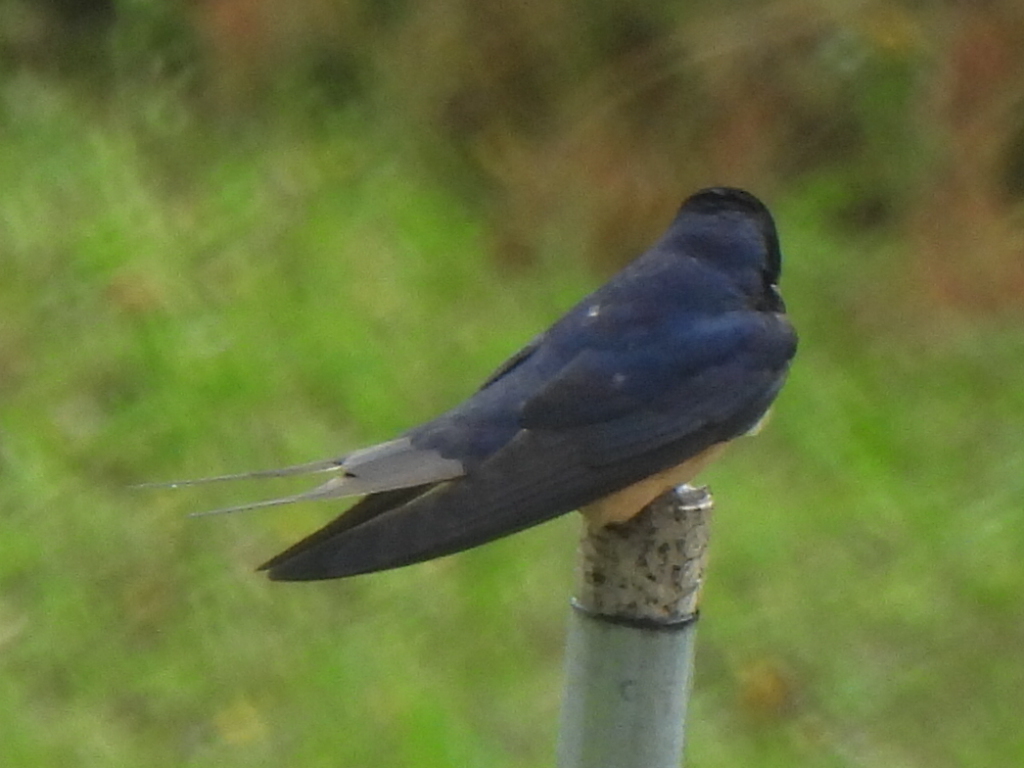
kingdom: Animalia
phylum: Chordata
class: Aves
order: Passeriformes
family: Hirundinidae
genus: Hirundo
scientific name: Hirundo rustica
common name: Barn swallow
